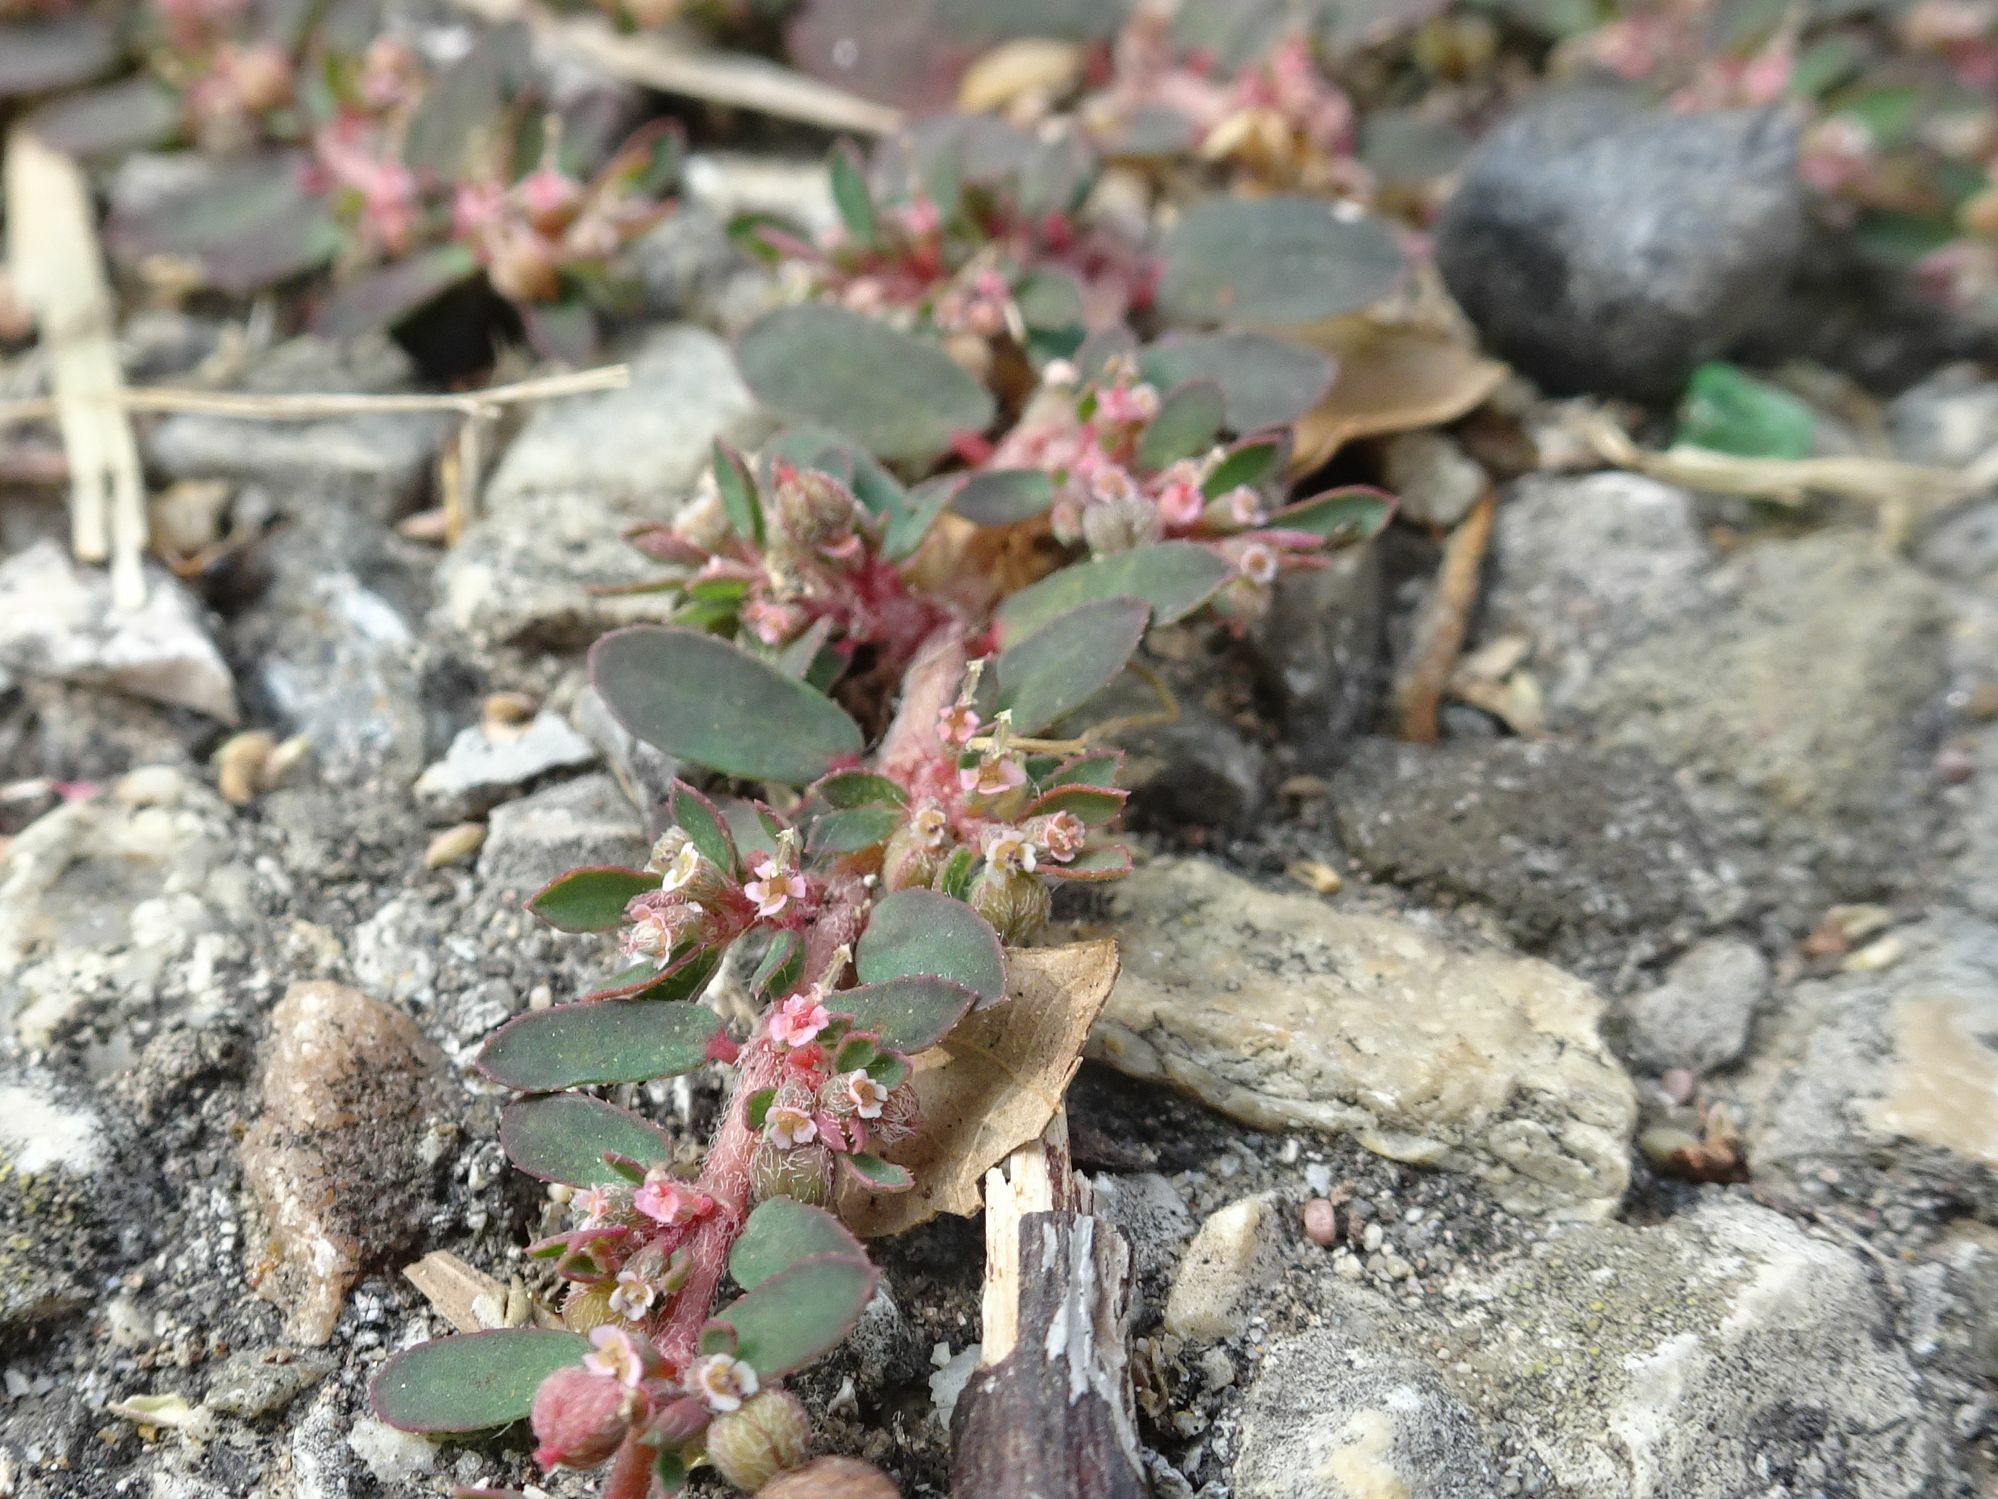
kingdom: Plantae
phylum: Tracheophyta
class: Magnoliopsida
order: Malpighiales
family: Euphorbiaceae
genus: Euphorbia
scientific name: Euphorbia maculata
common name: Spotted spurge
